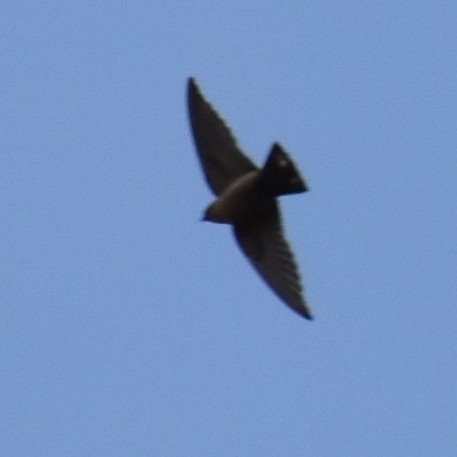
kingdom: Animalia
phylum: Chordata
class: Aves
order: Passeriformes
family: Hirundinidae
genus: Ptyonoprogne
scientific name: Ptyonoprogne fuligula
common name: Rock martin
